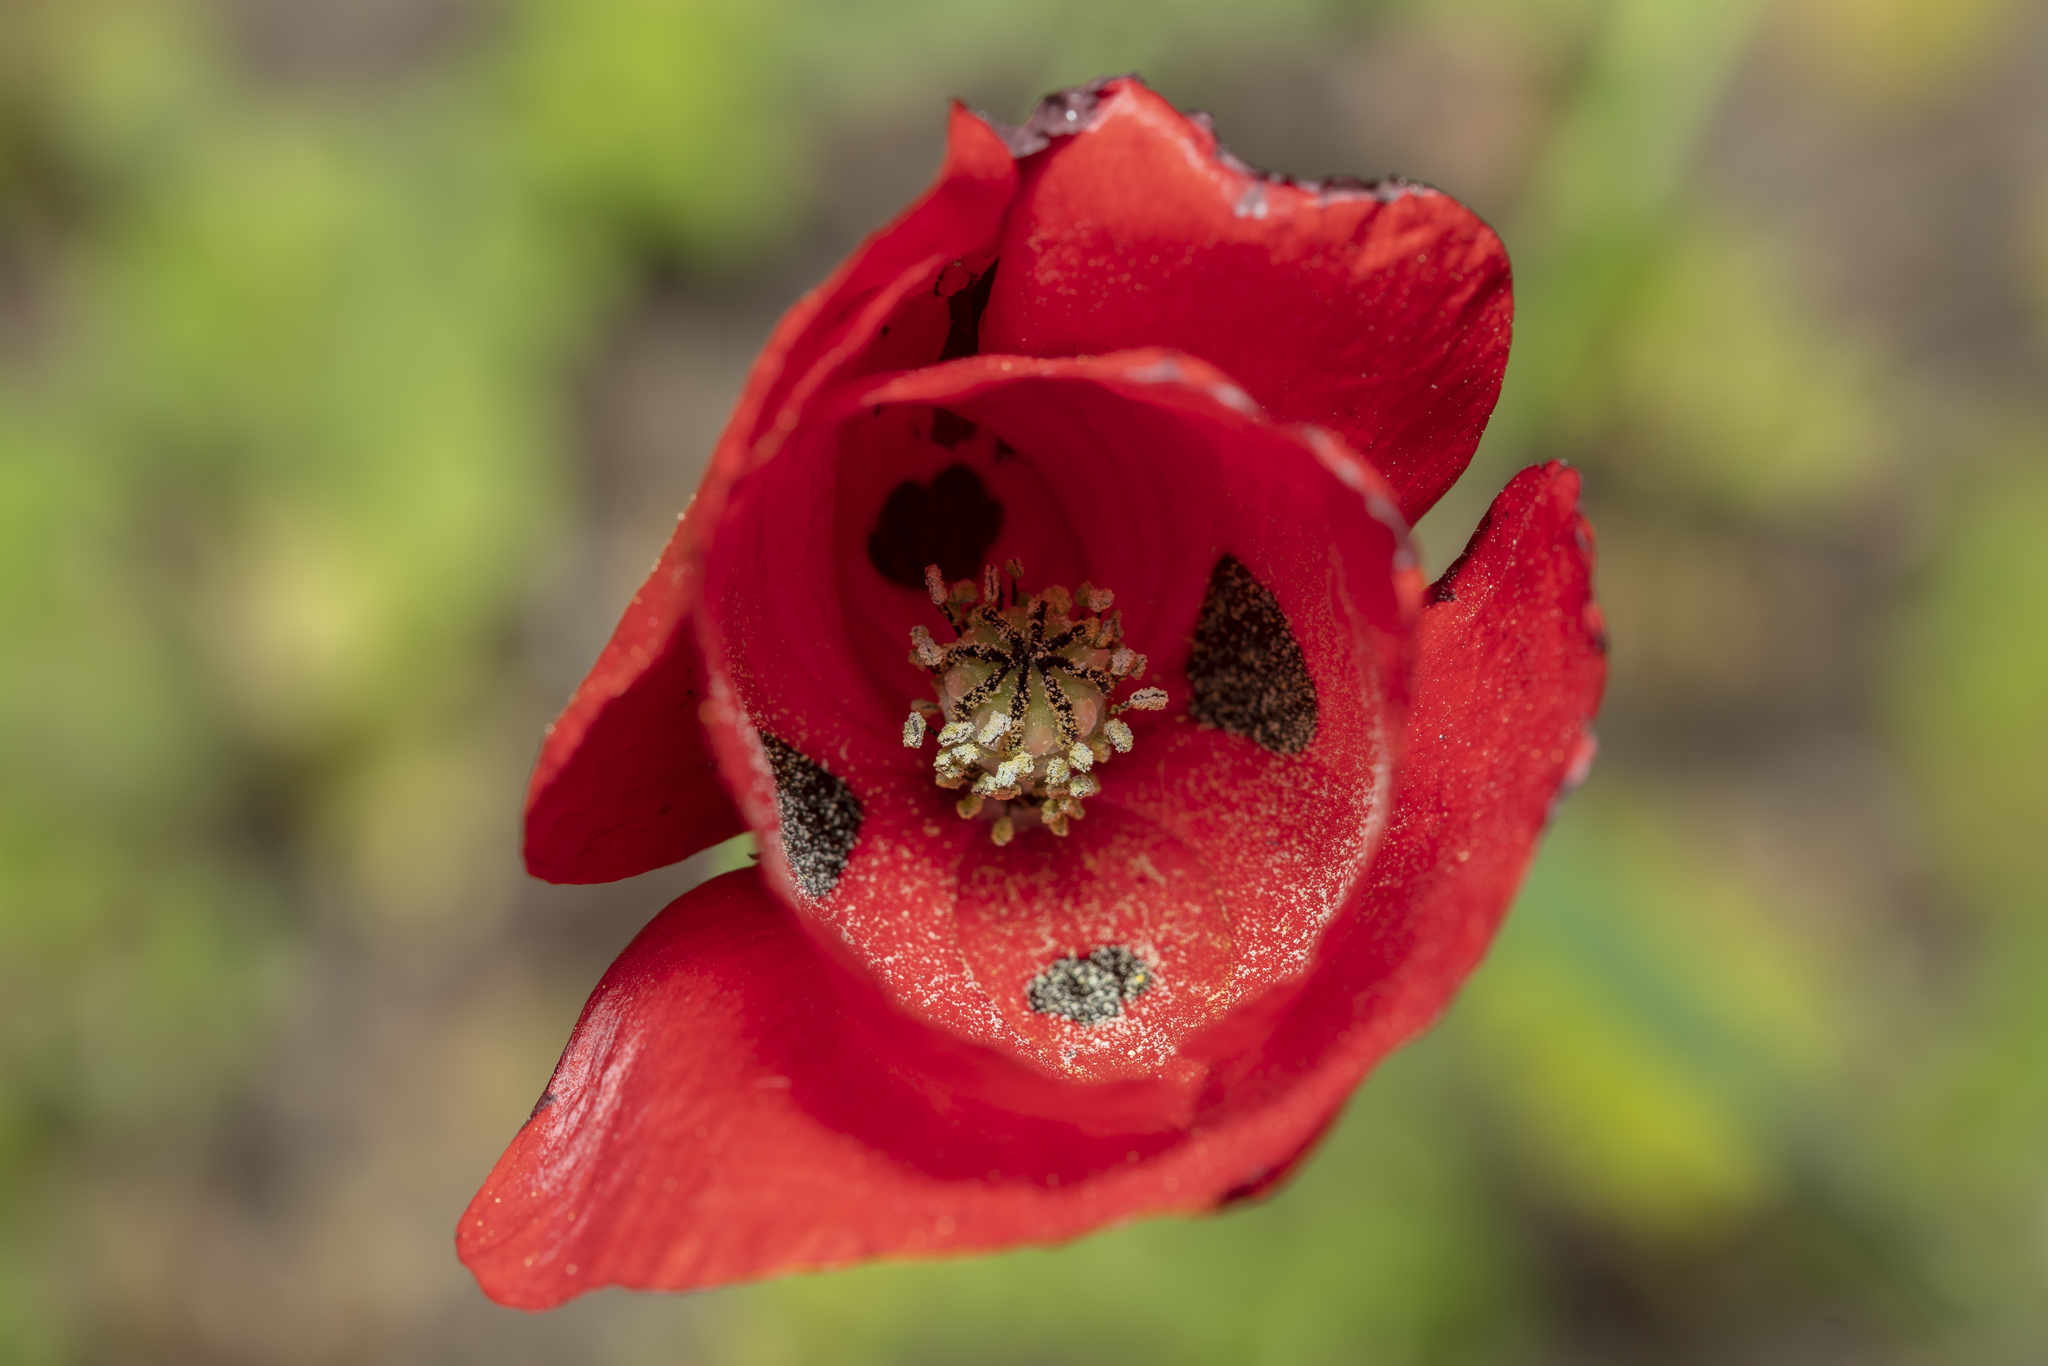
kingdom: Plantae
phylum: Tracheophyta
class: Magnoliopsida
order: Ranunculales
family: Papaveraceae
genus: Papaver
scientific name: Papaver rhoeas
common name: Corn poppy
